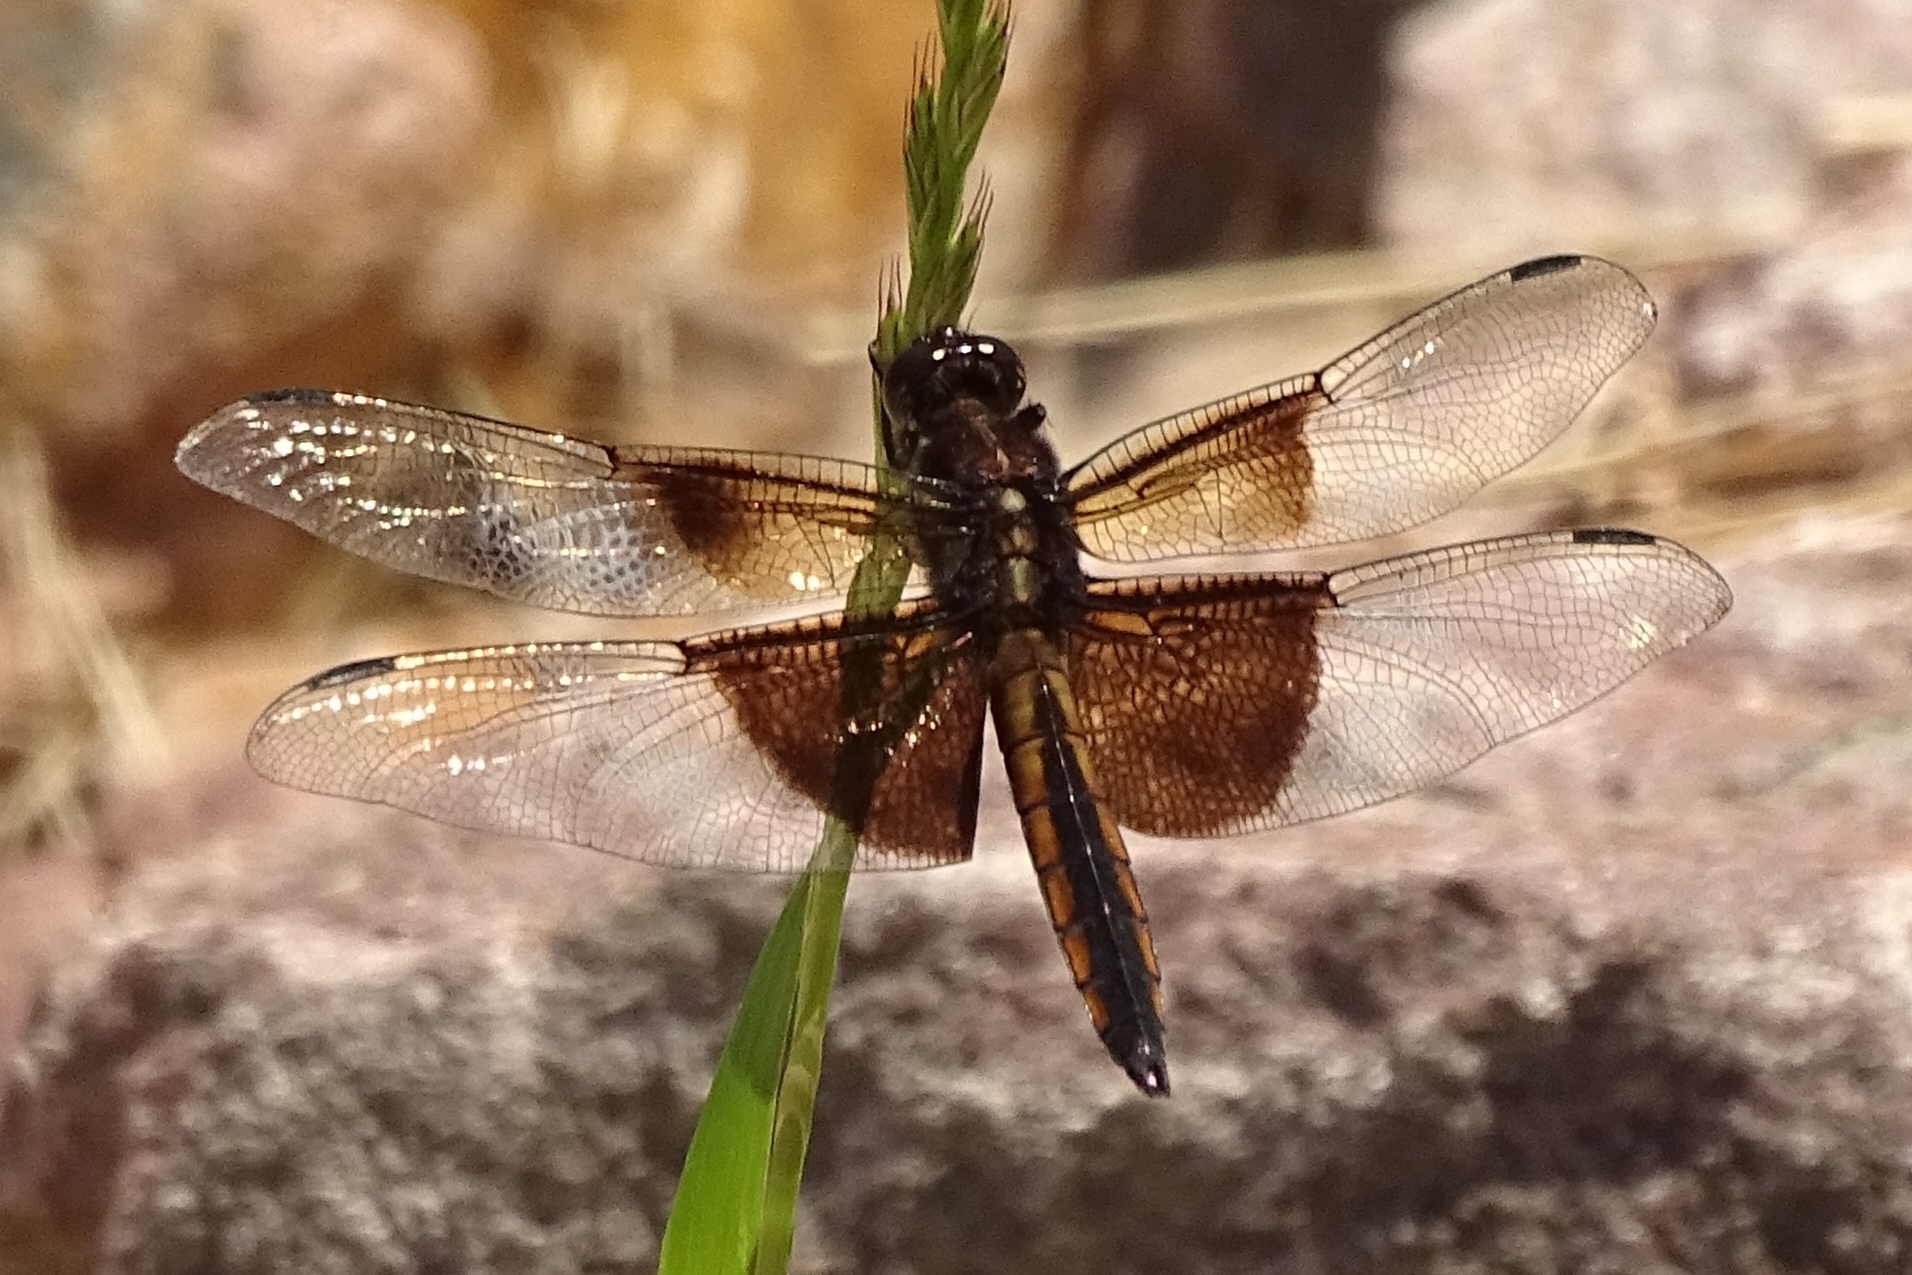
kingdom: Animalia
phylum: Arthropoda
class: Insecta
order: Odonata
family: Libellulidae
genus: Libellula
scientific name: Libellula luctuosa
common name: Widow skimmer
